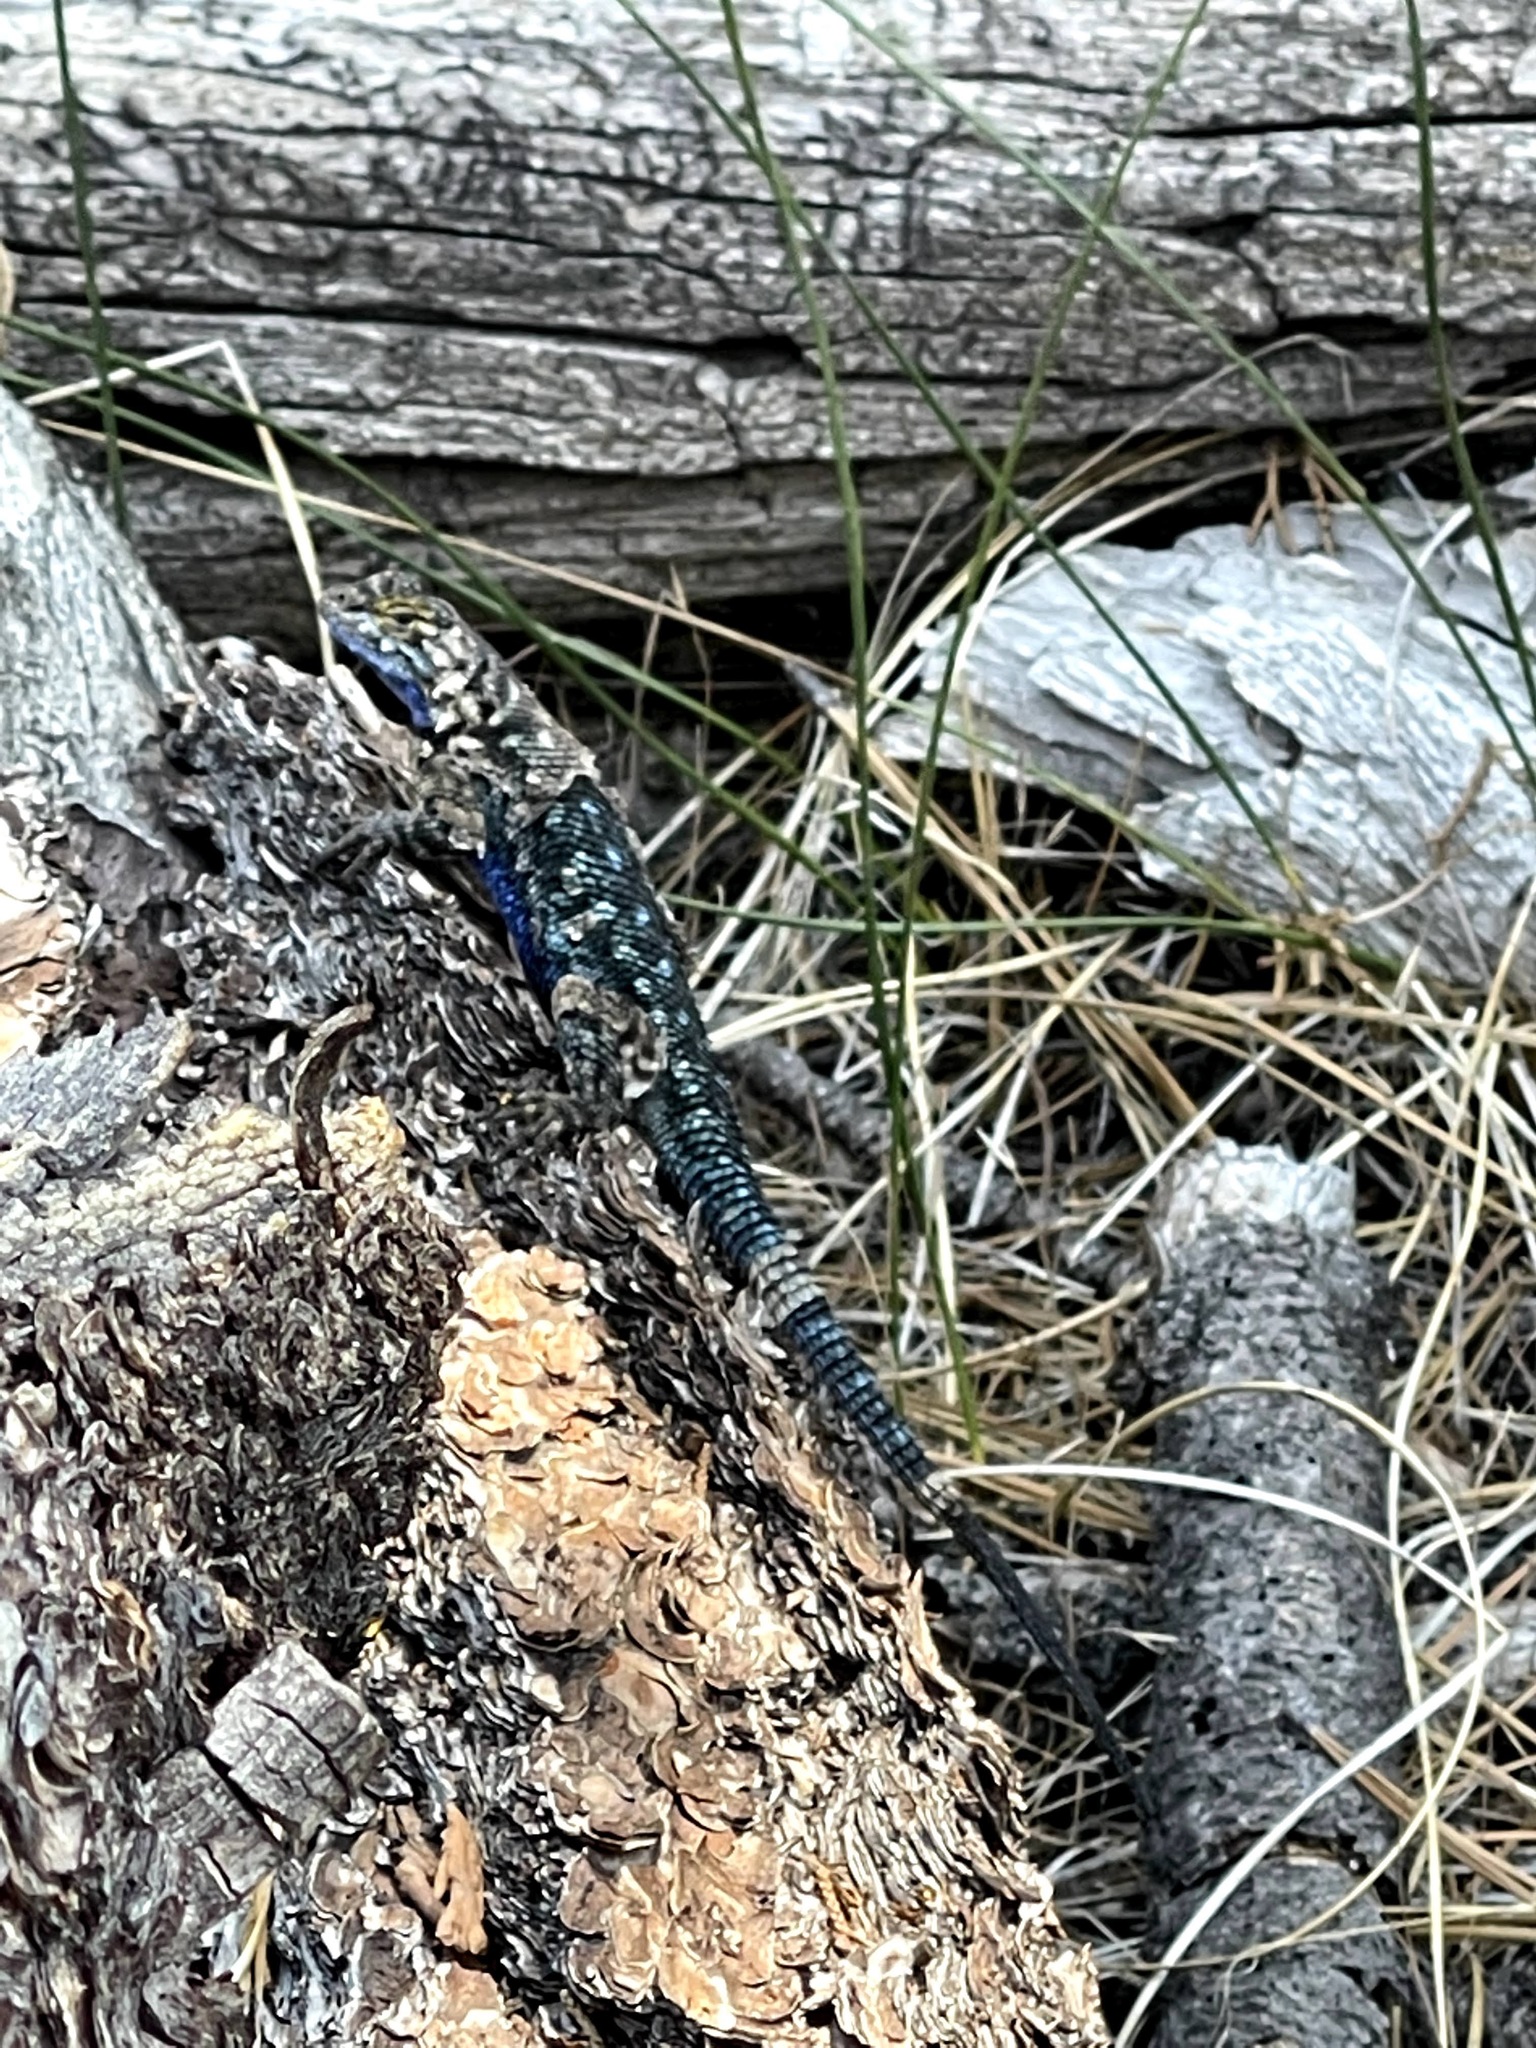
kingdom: Animalia
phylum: Chordata
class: Squamata
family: Phrynosomatidae
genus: Sceloporus
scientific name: Sceloporus occidentalis
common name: Western fence lizard
